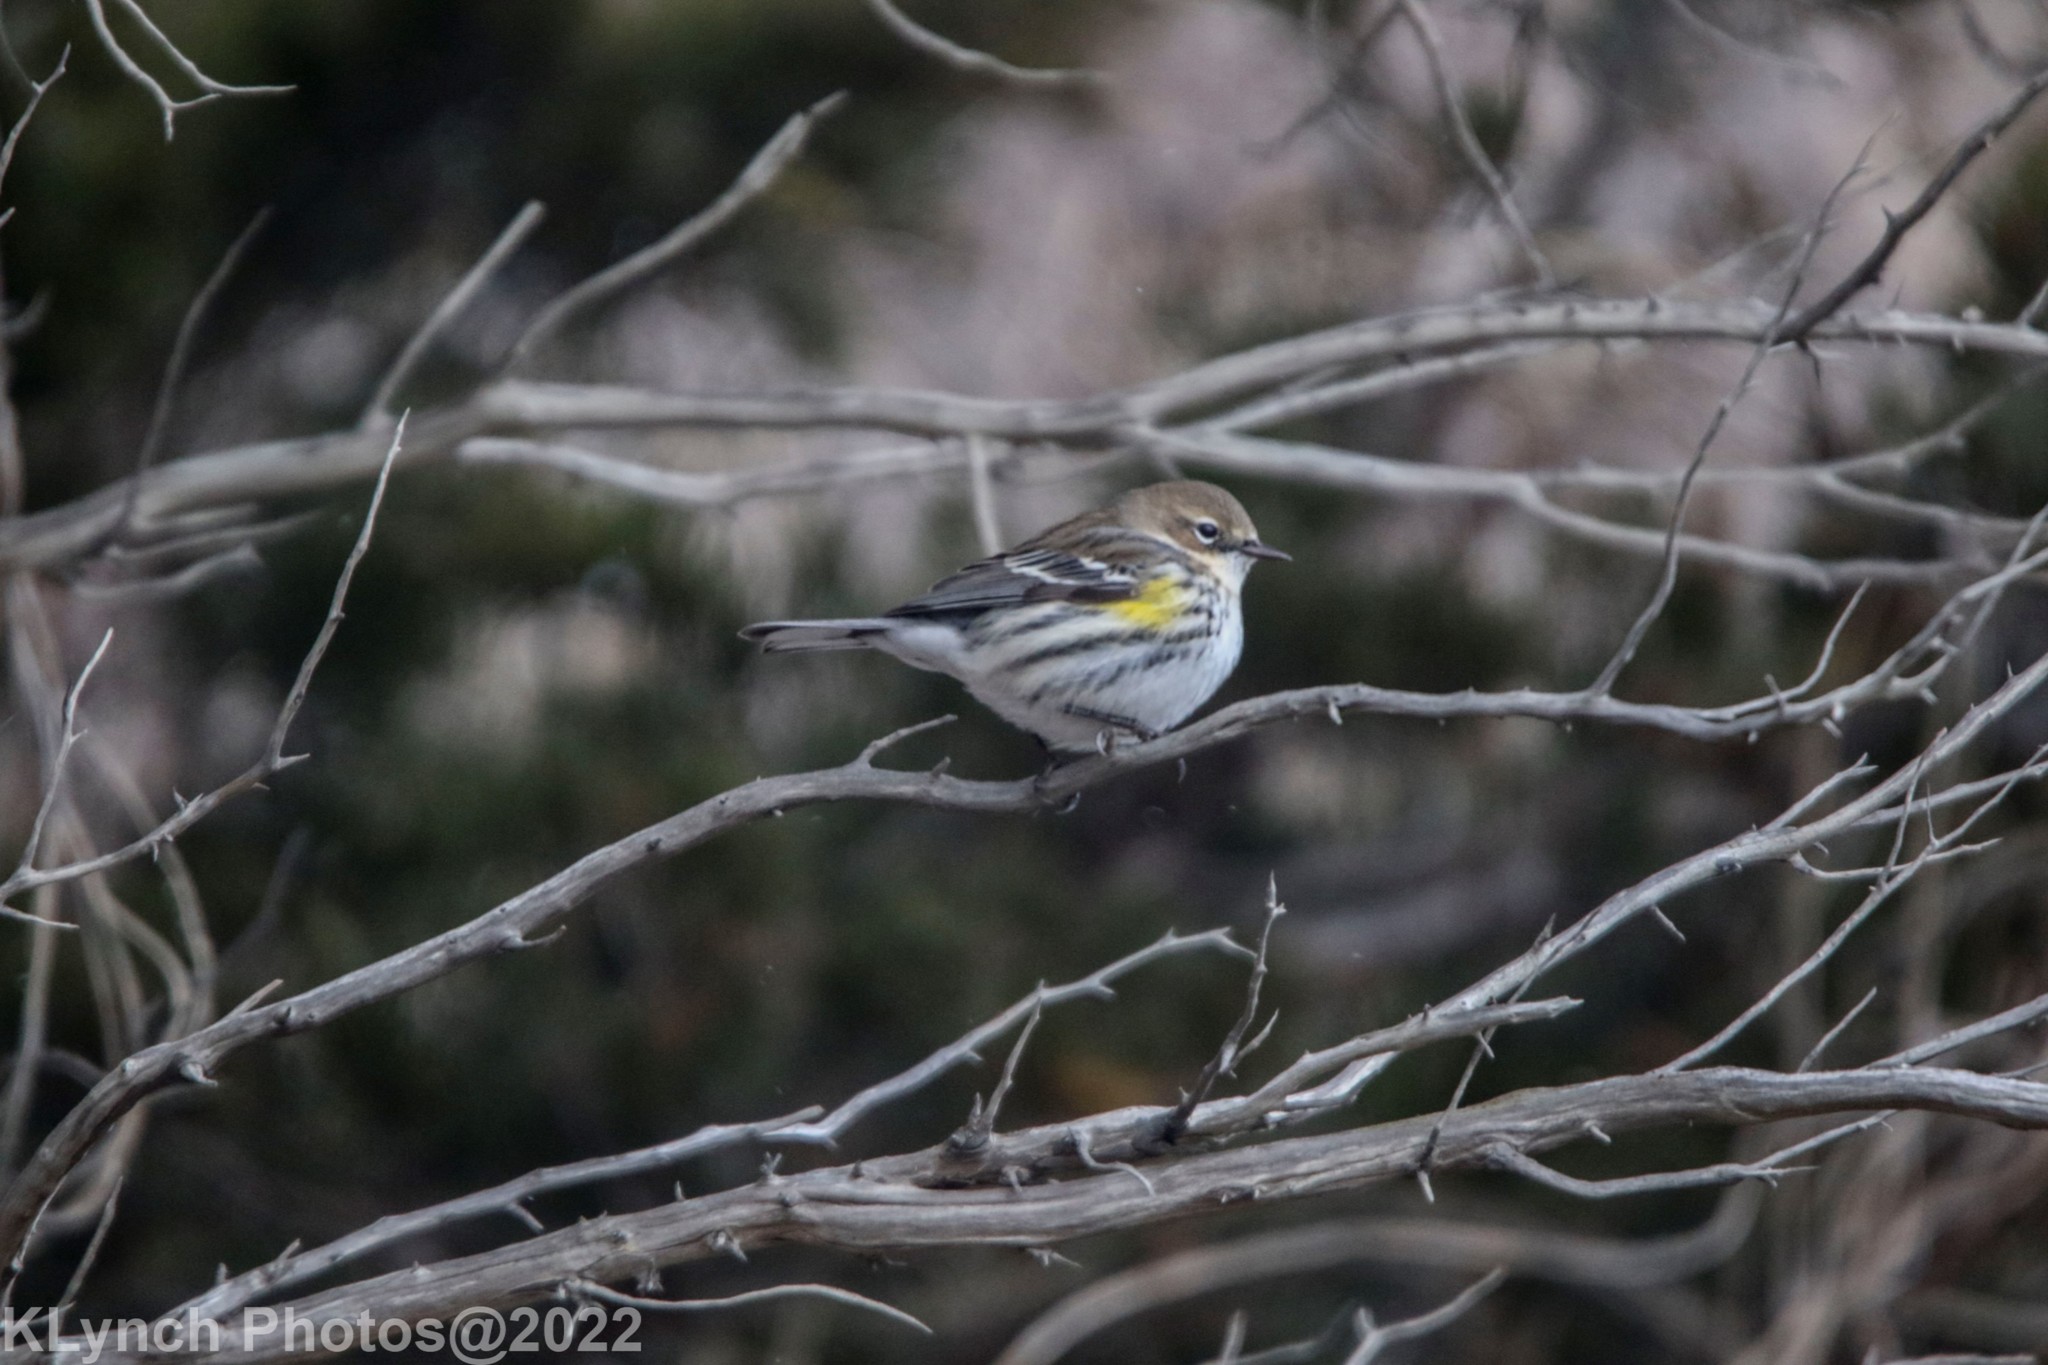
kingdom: Animalia
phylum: Chordata
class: Aves
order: Passeriformes
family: Parulidae
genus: Setophaga
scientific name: Setophaga coronata
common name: Myrtle warbler
